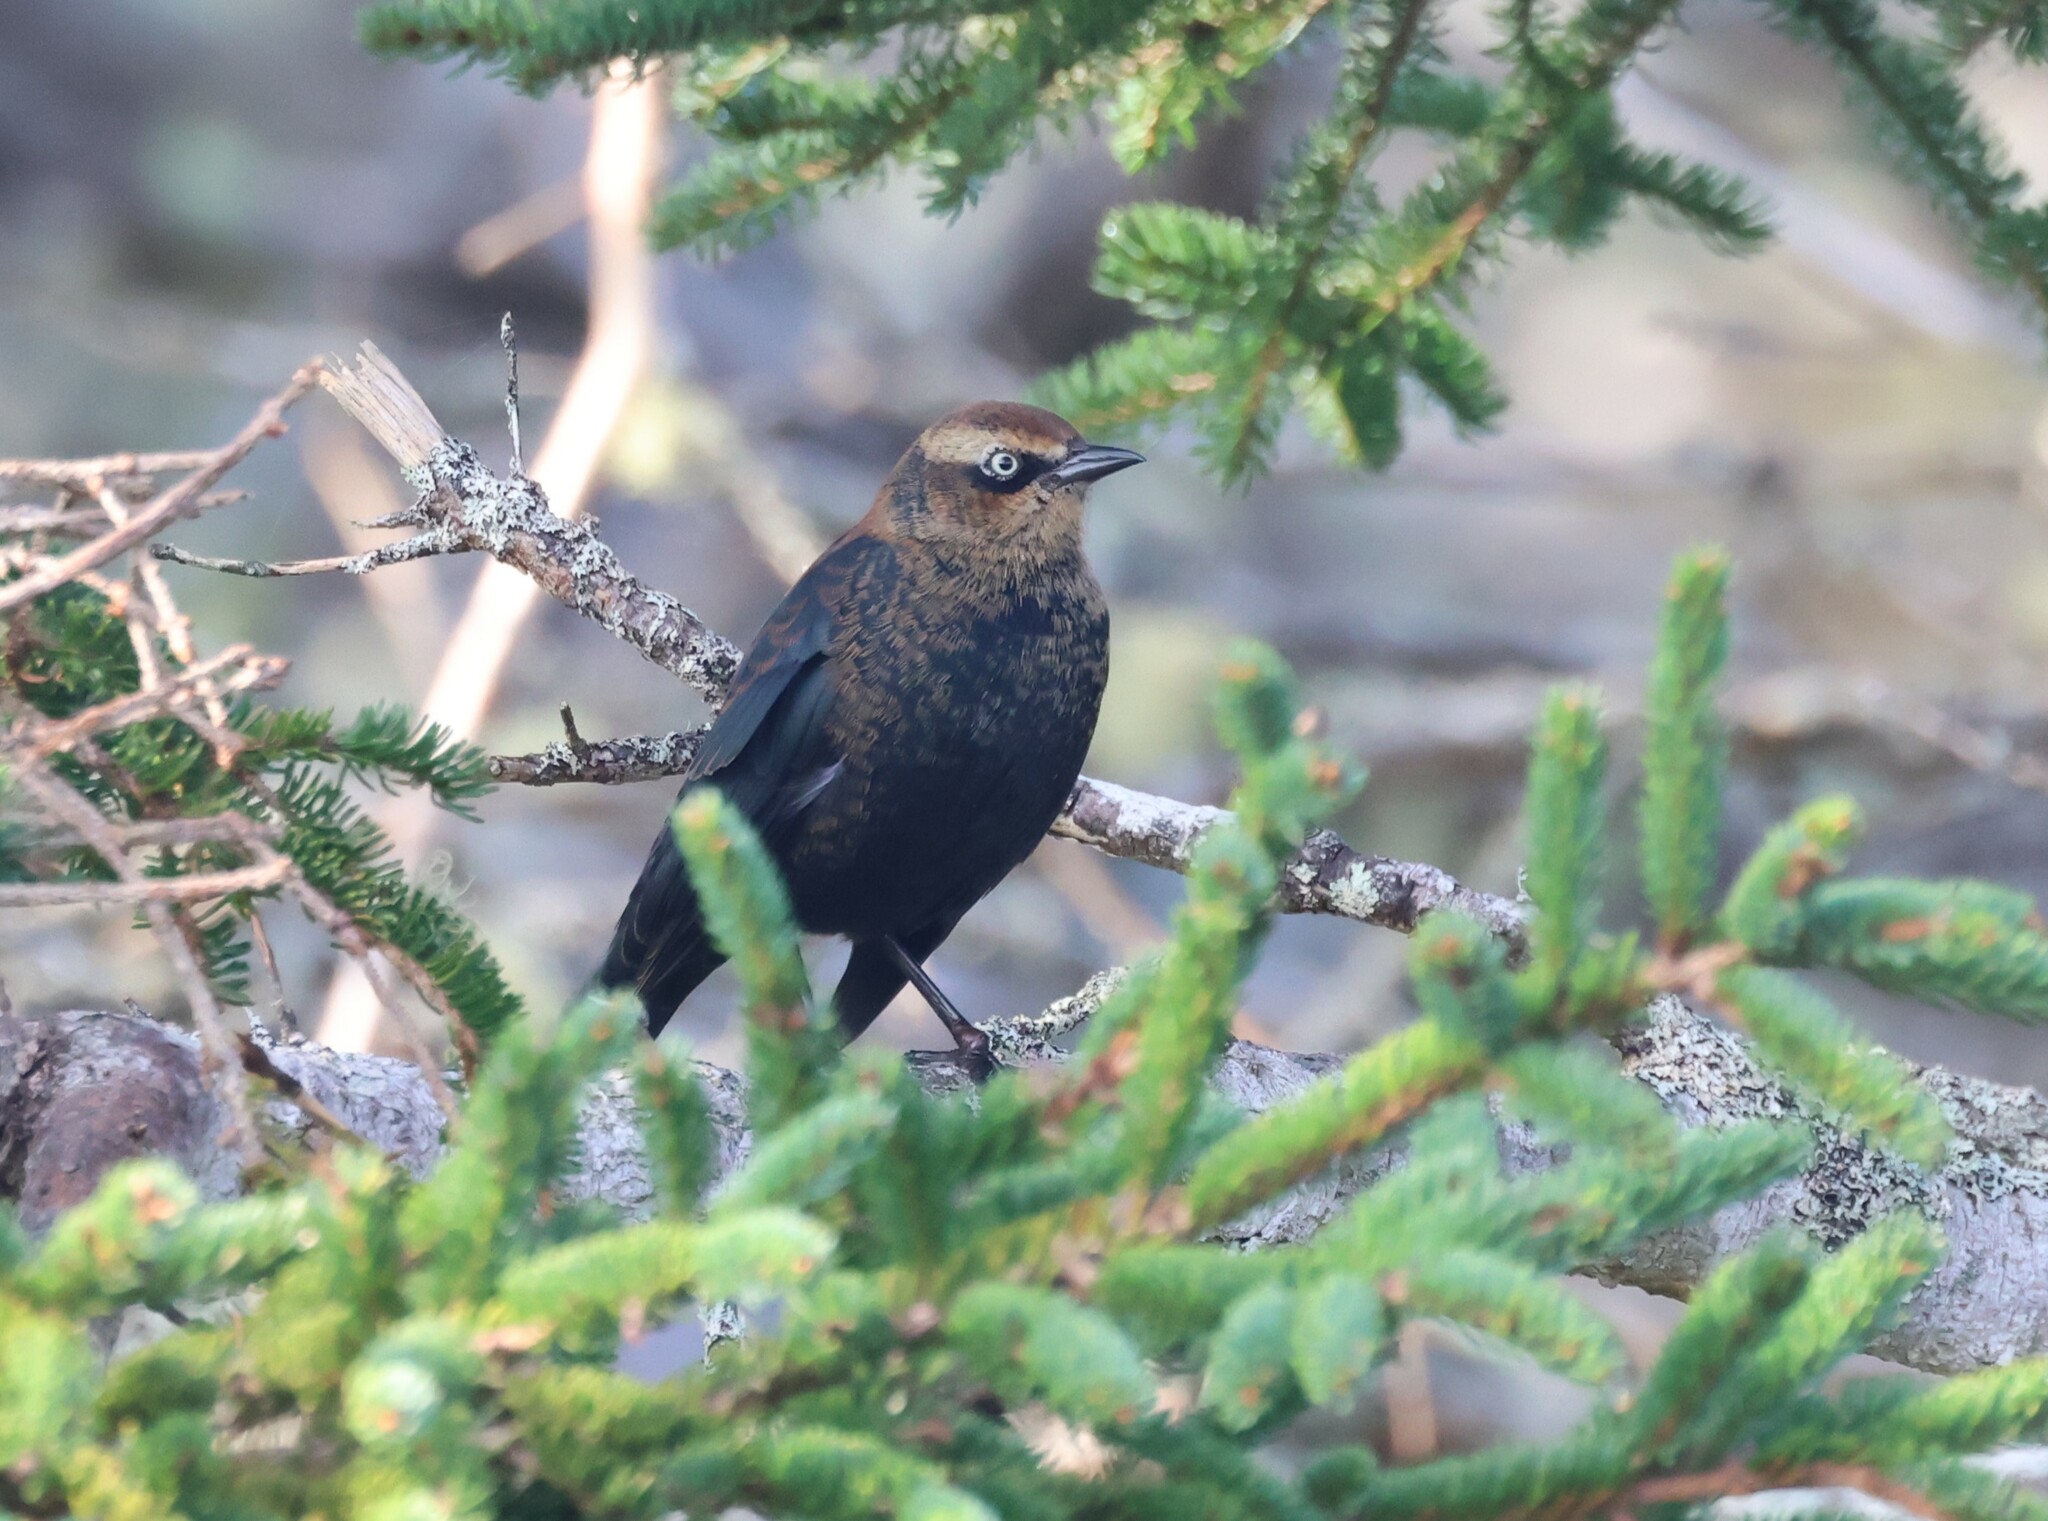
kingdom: Animalia
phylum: Chordata
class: Aves
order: Passeriformes
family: Icteridae
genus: Euphagus
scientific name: Euphagus carolinus
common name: Rusty blackbird
